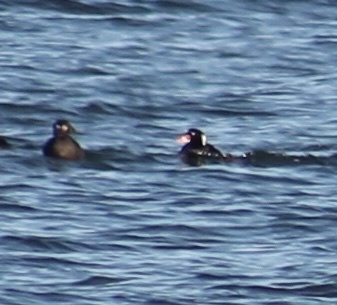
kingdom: Animalia
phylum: Chordata
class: Aves
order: Anseriformes
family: Anatidae
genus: Melanitta
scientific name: Melanitta perspicillata
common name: Surf scoter
